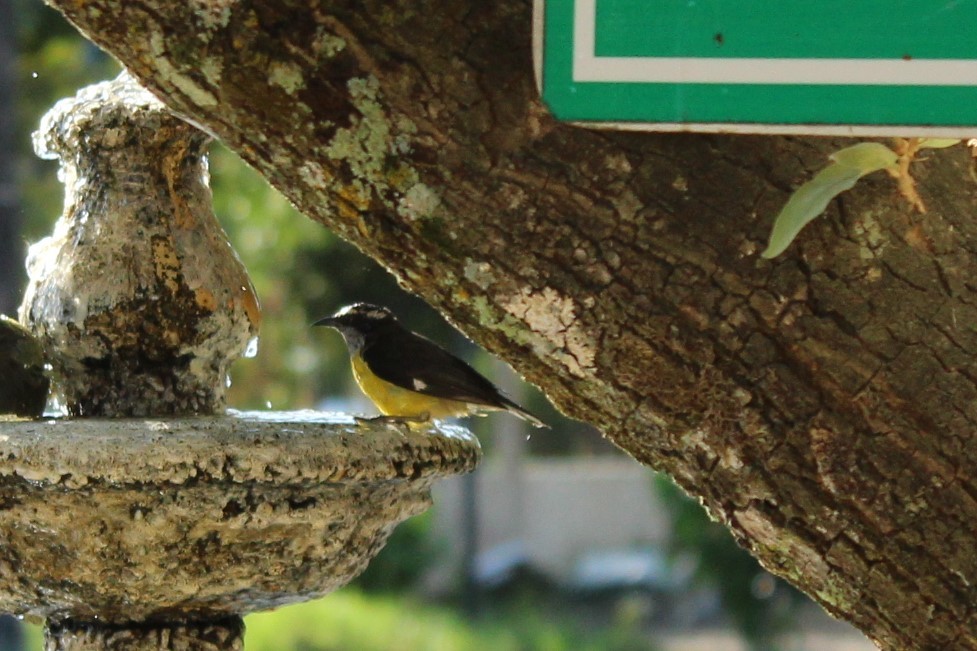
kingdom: Animalia
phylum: Chordata
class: Aves
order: Passeriformes
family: Thraupidae
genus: Coereba
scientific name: Coereba flaveola
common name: Bananaquit
